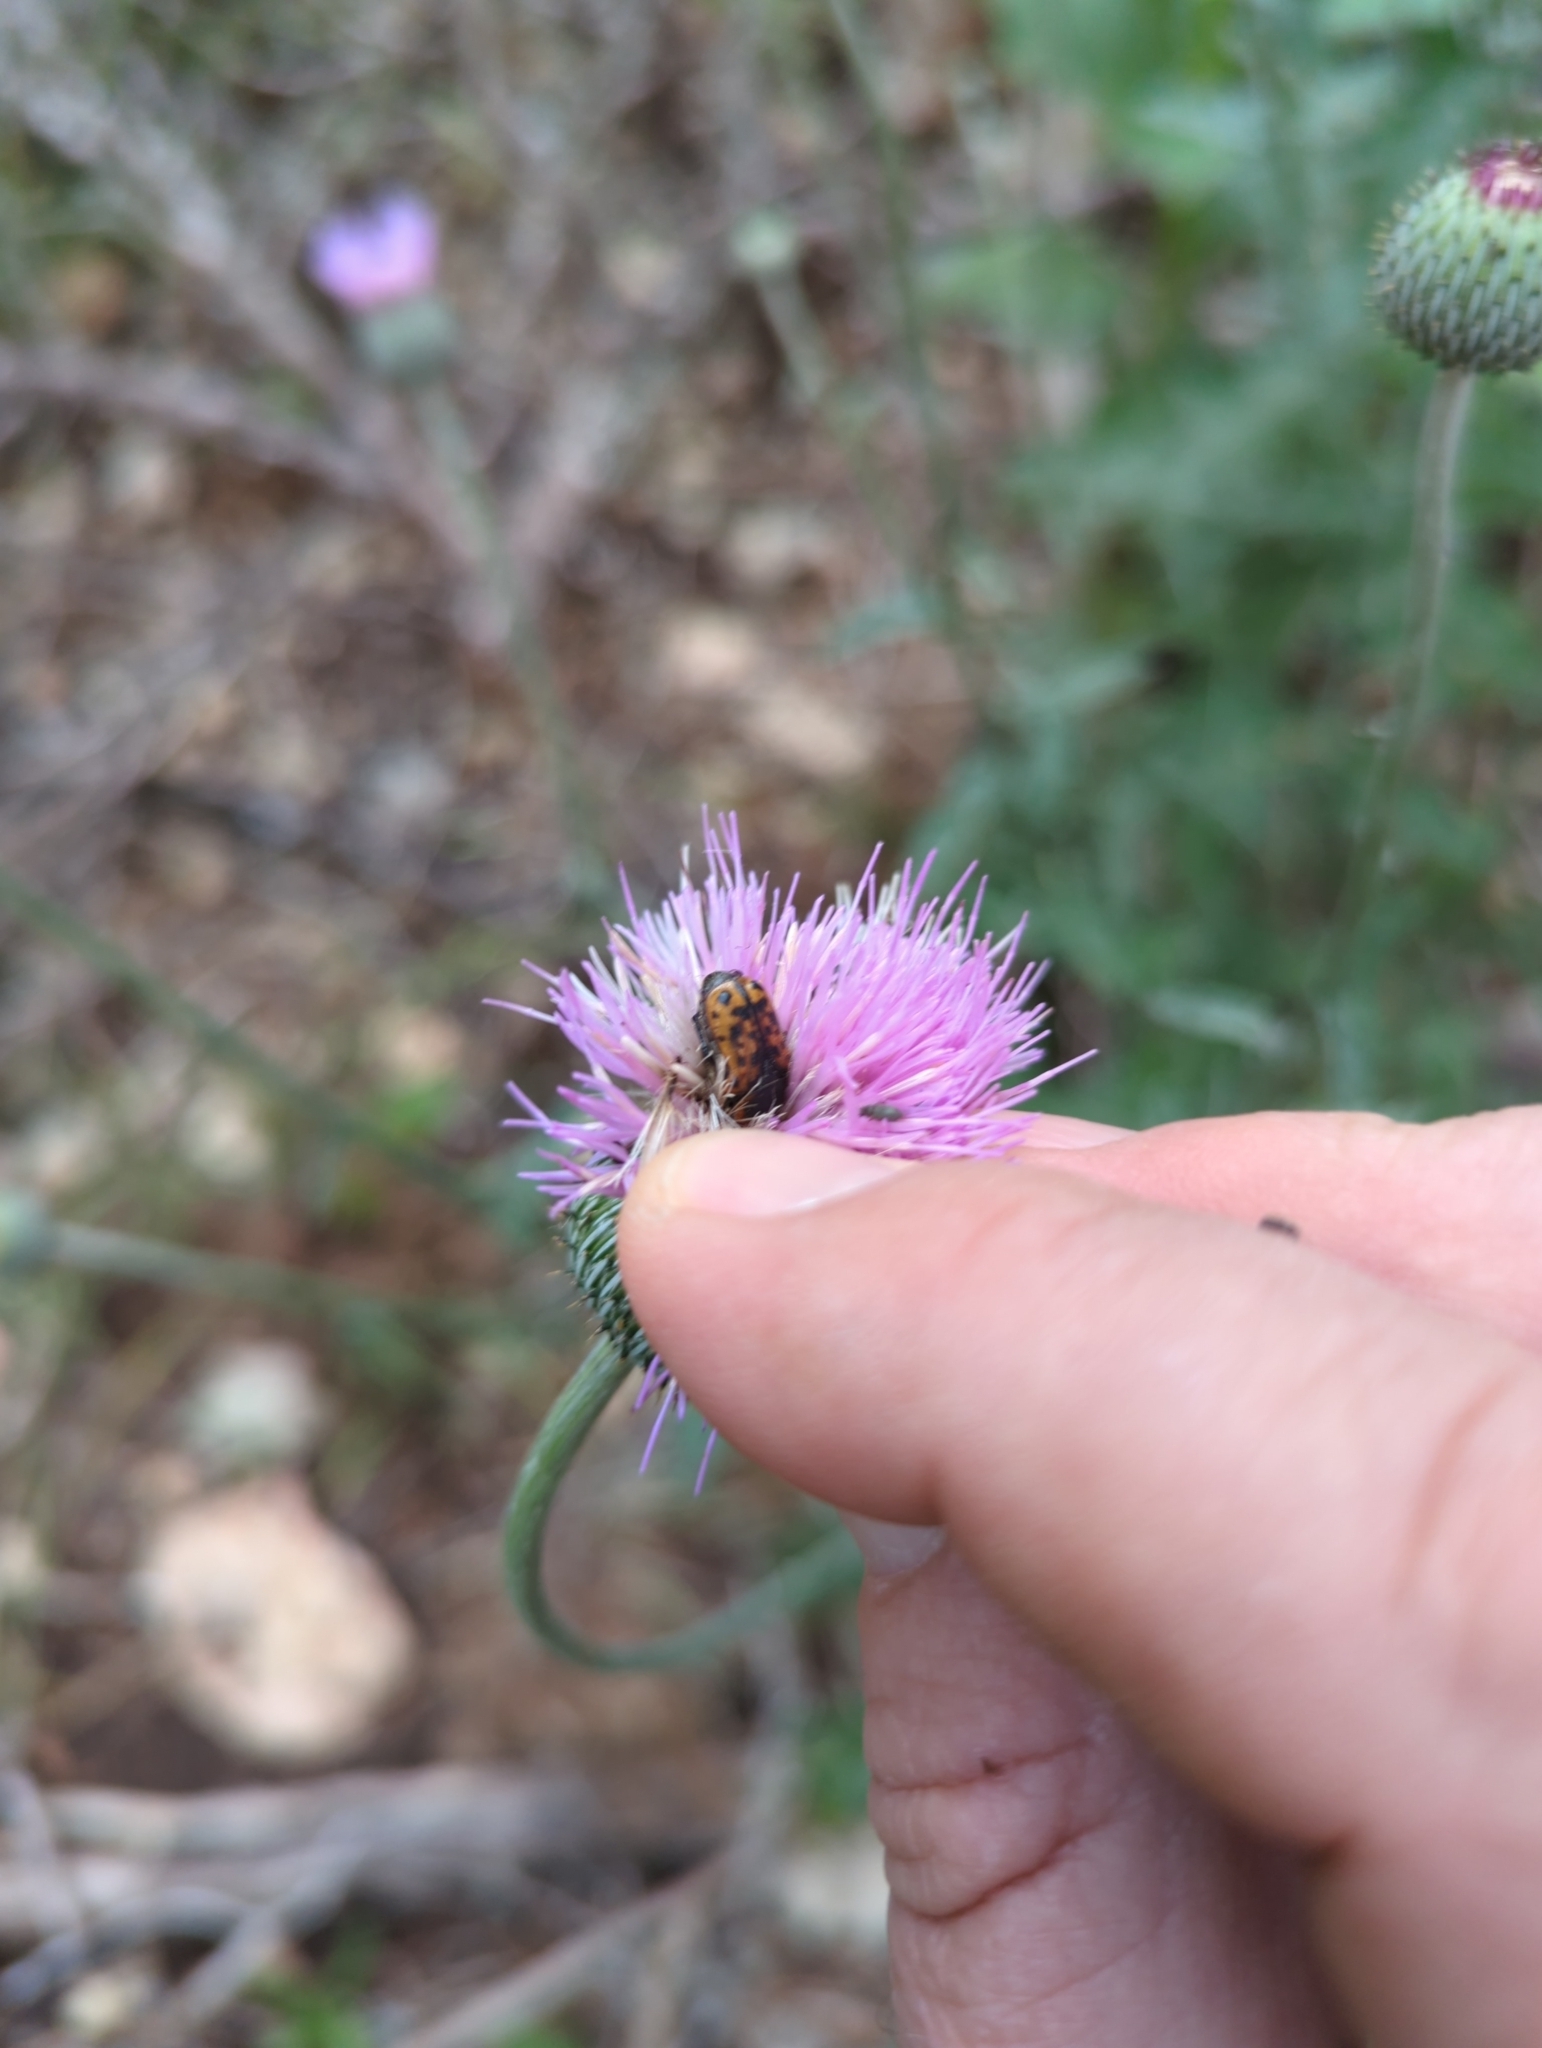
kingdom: Animalia
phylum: Arthropoda
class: Insecta
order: Coleoptera
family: Scarabaeidae
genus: Euphoria
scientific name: Euphoria kernii
